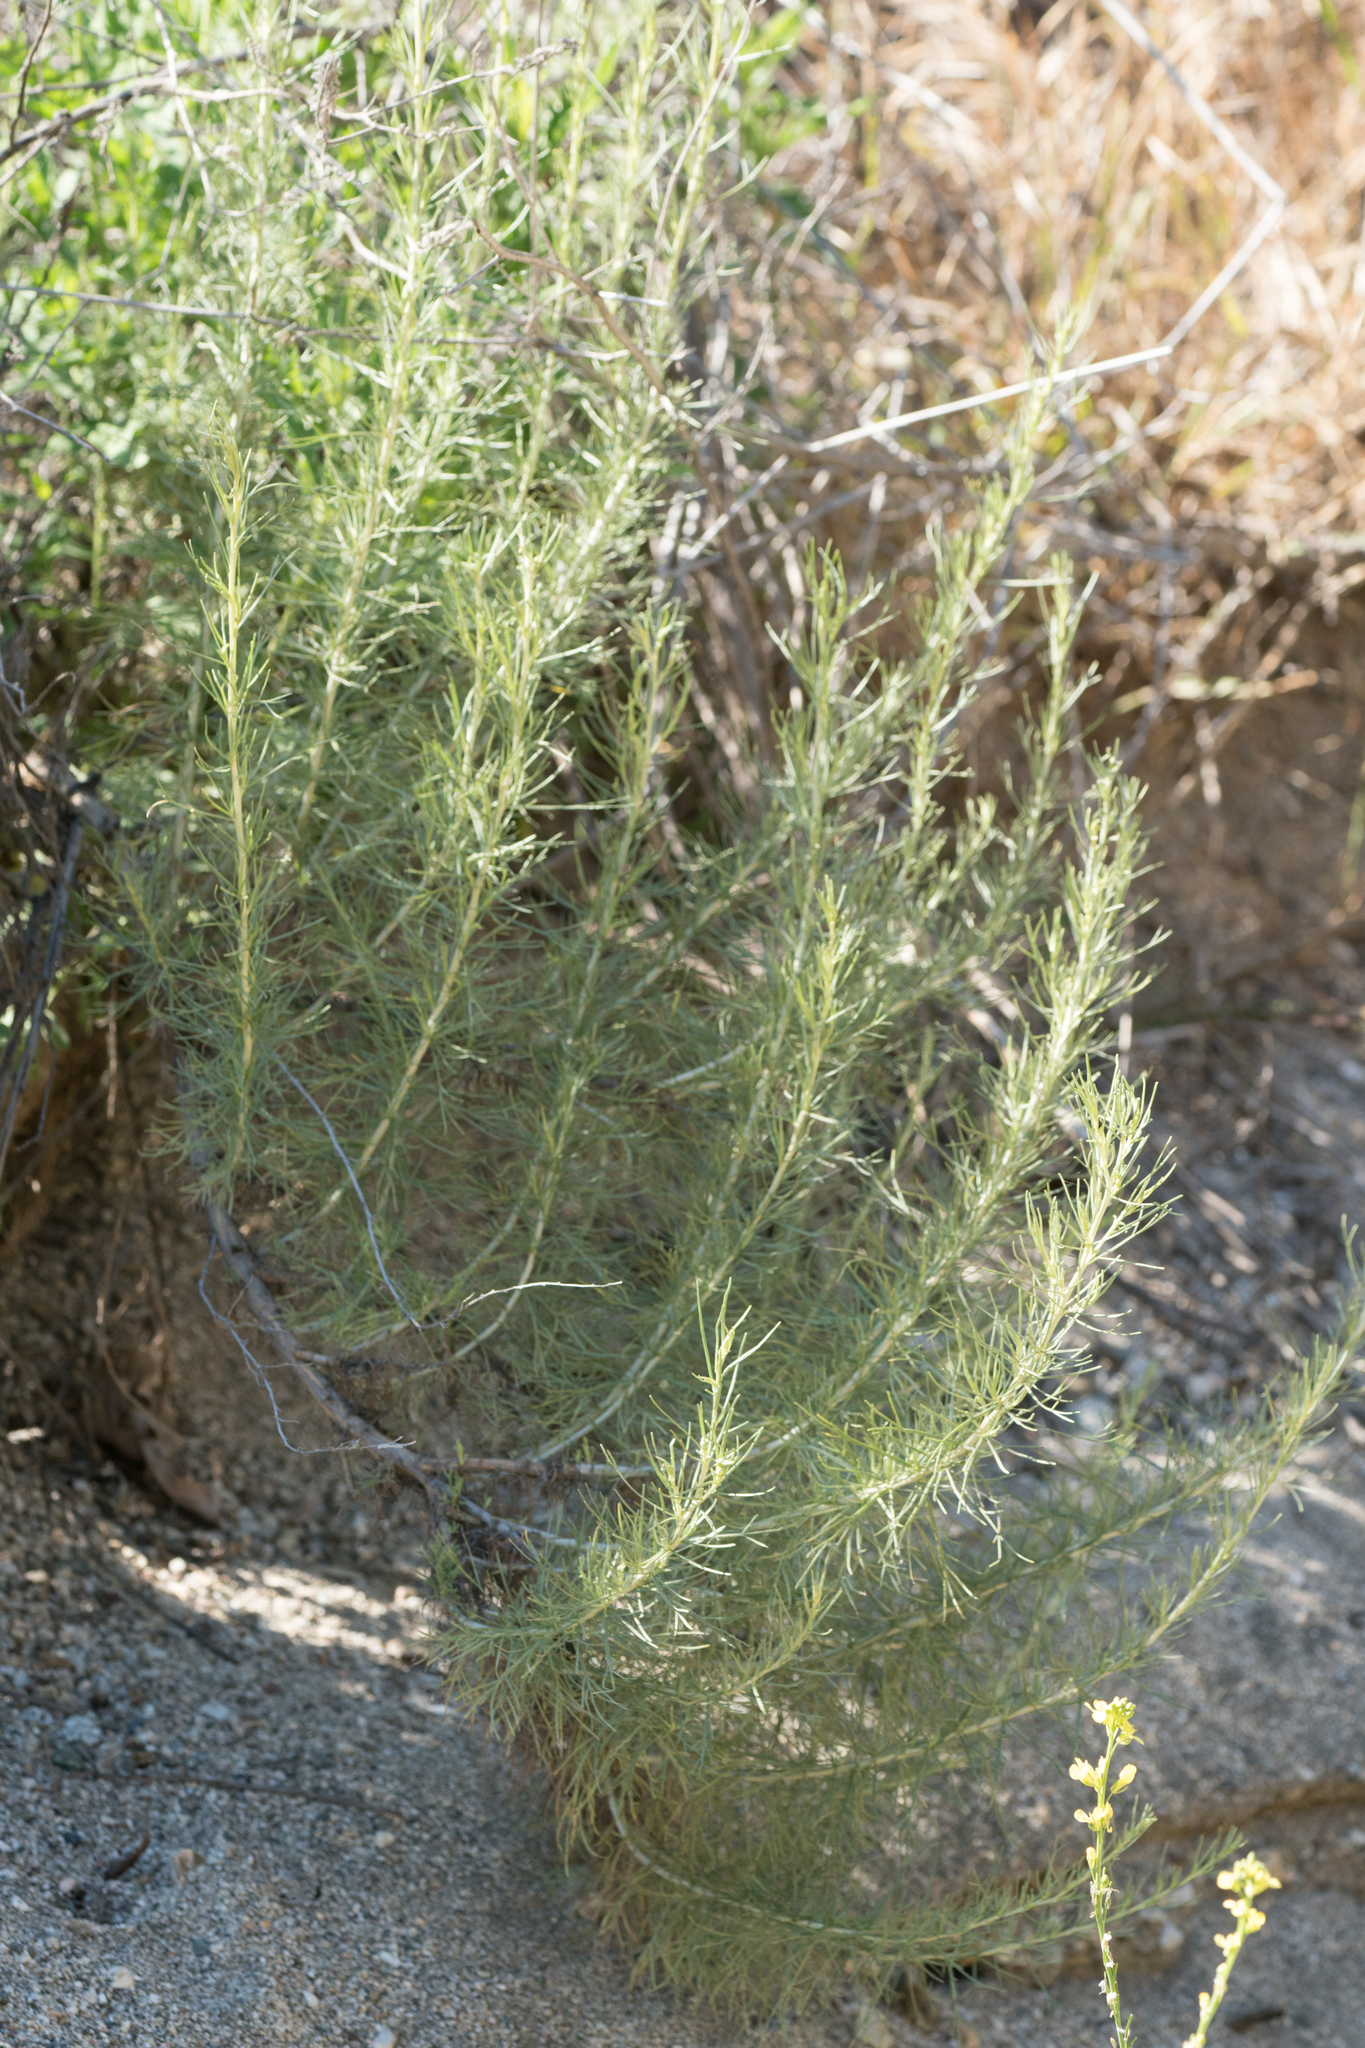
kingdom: Plantae
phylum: Tracheophyta
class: Magnoliopsida
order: Asterales
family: Asteraceae
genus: Artemisia
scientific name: Artemisia californica
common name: California sagebrush
